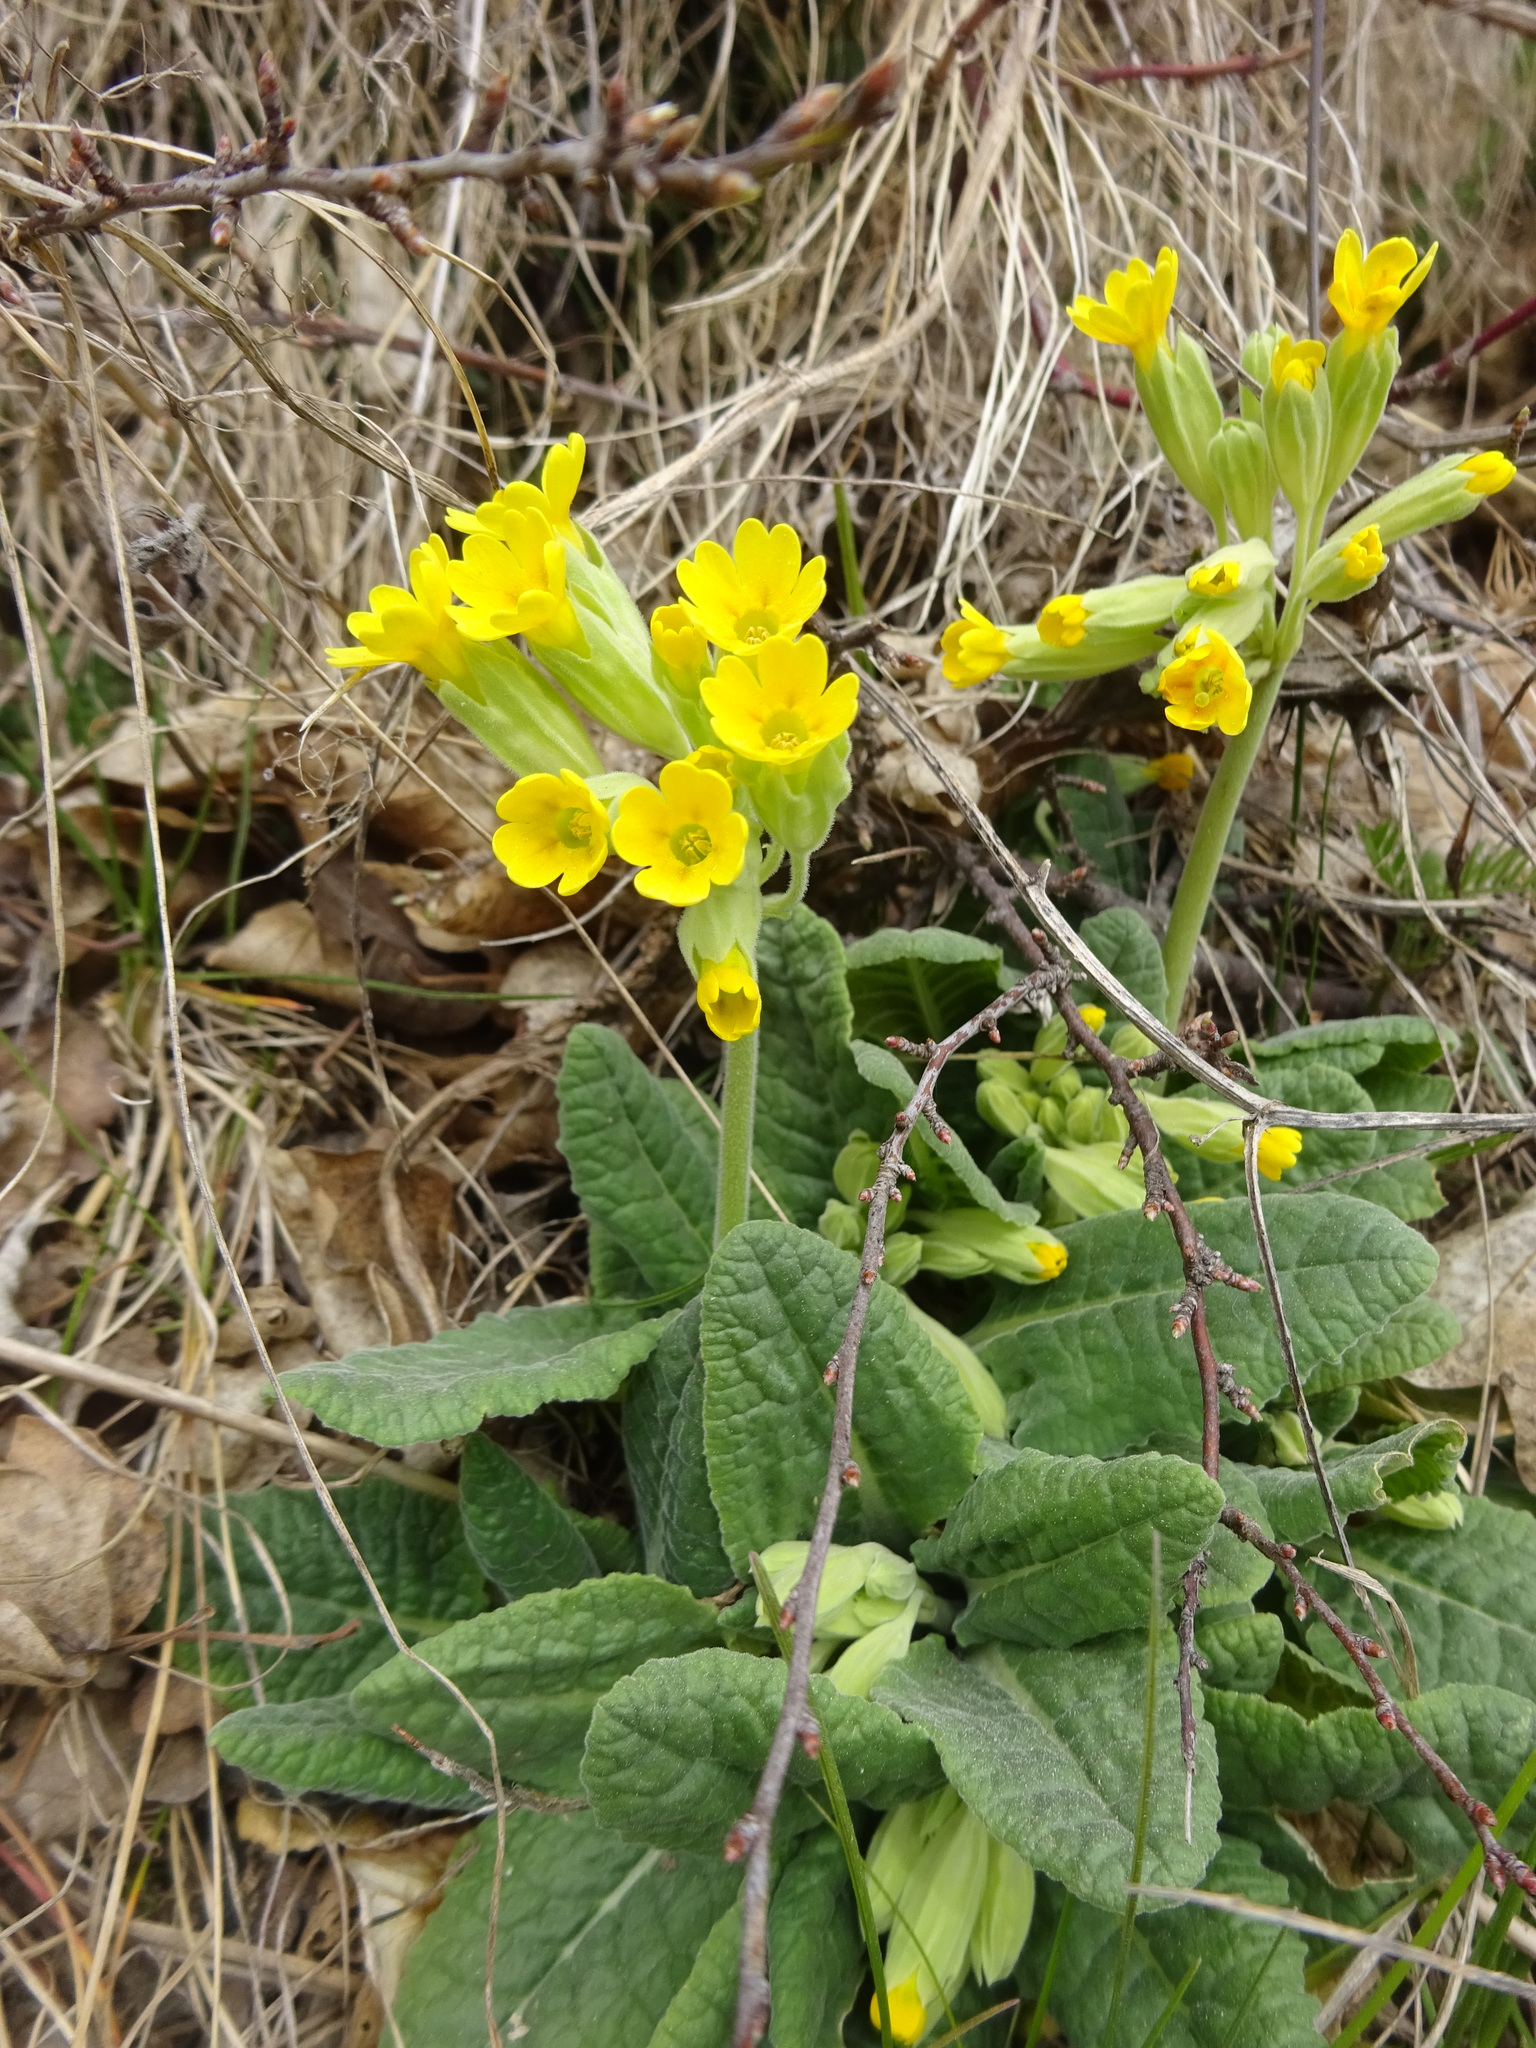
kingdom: Plantae
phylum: Tracheophyta
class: Magnoliopsida
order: Ericales
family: Primulaceae
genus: Primula
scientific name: Primula veris
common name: Cowslip
